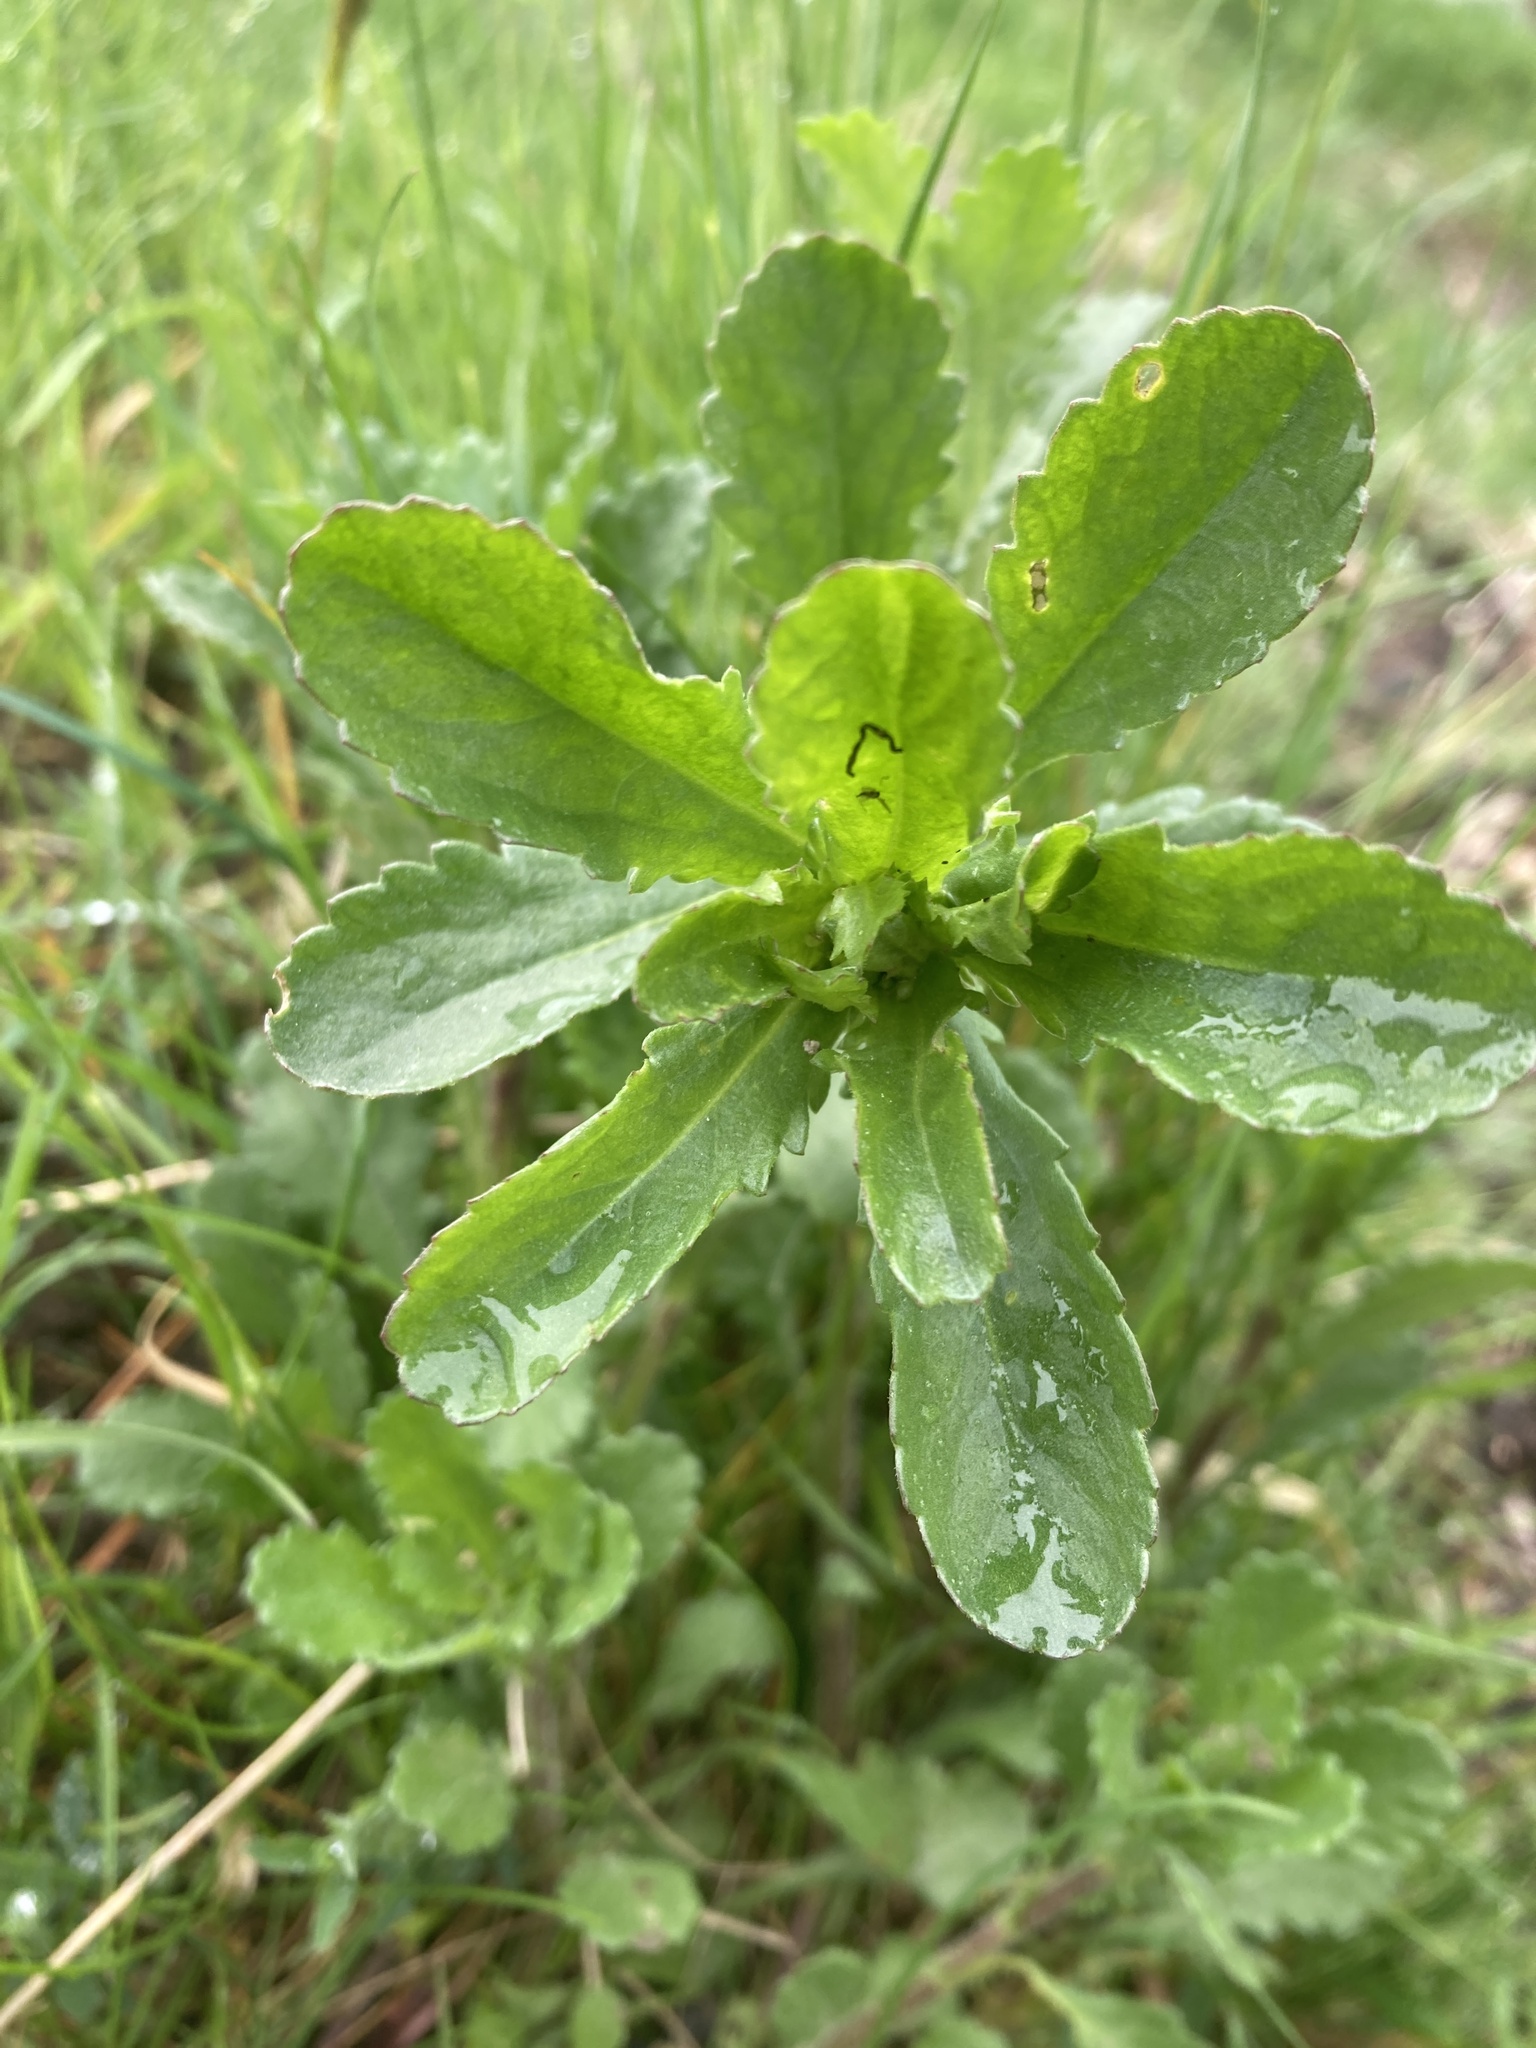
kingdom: Plantae
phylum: Tracheophyta
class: Magnoliopsida
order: Asterales
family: Asteraceae
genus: Leucanthemum
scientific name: Leucanthemum vulgare
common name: Oxeye daisy
